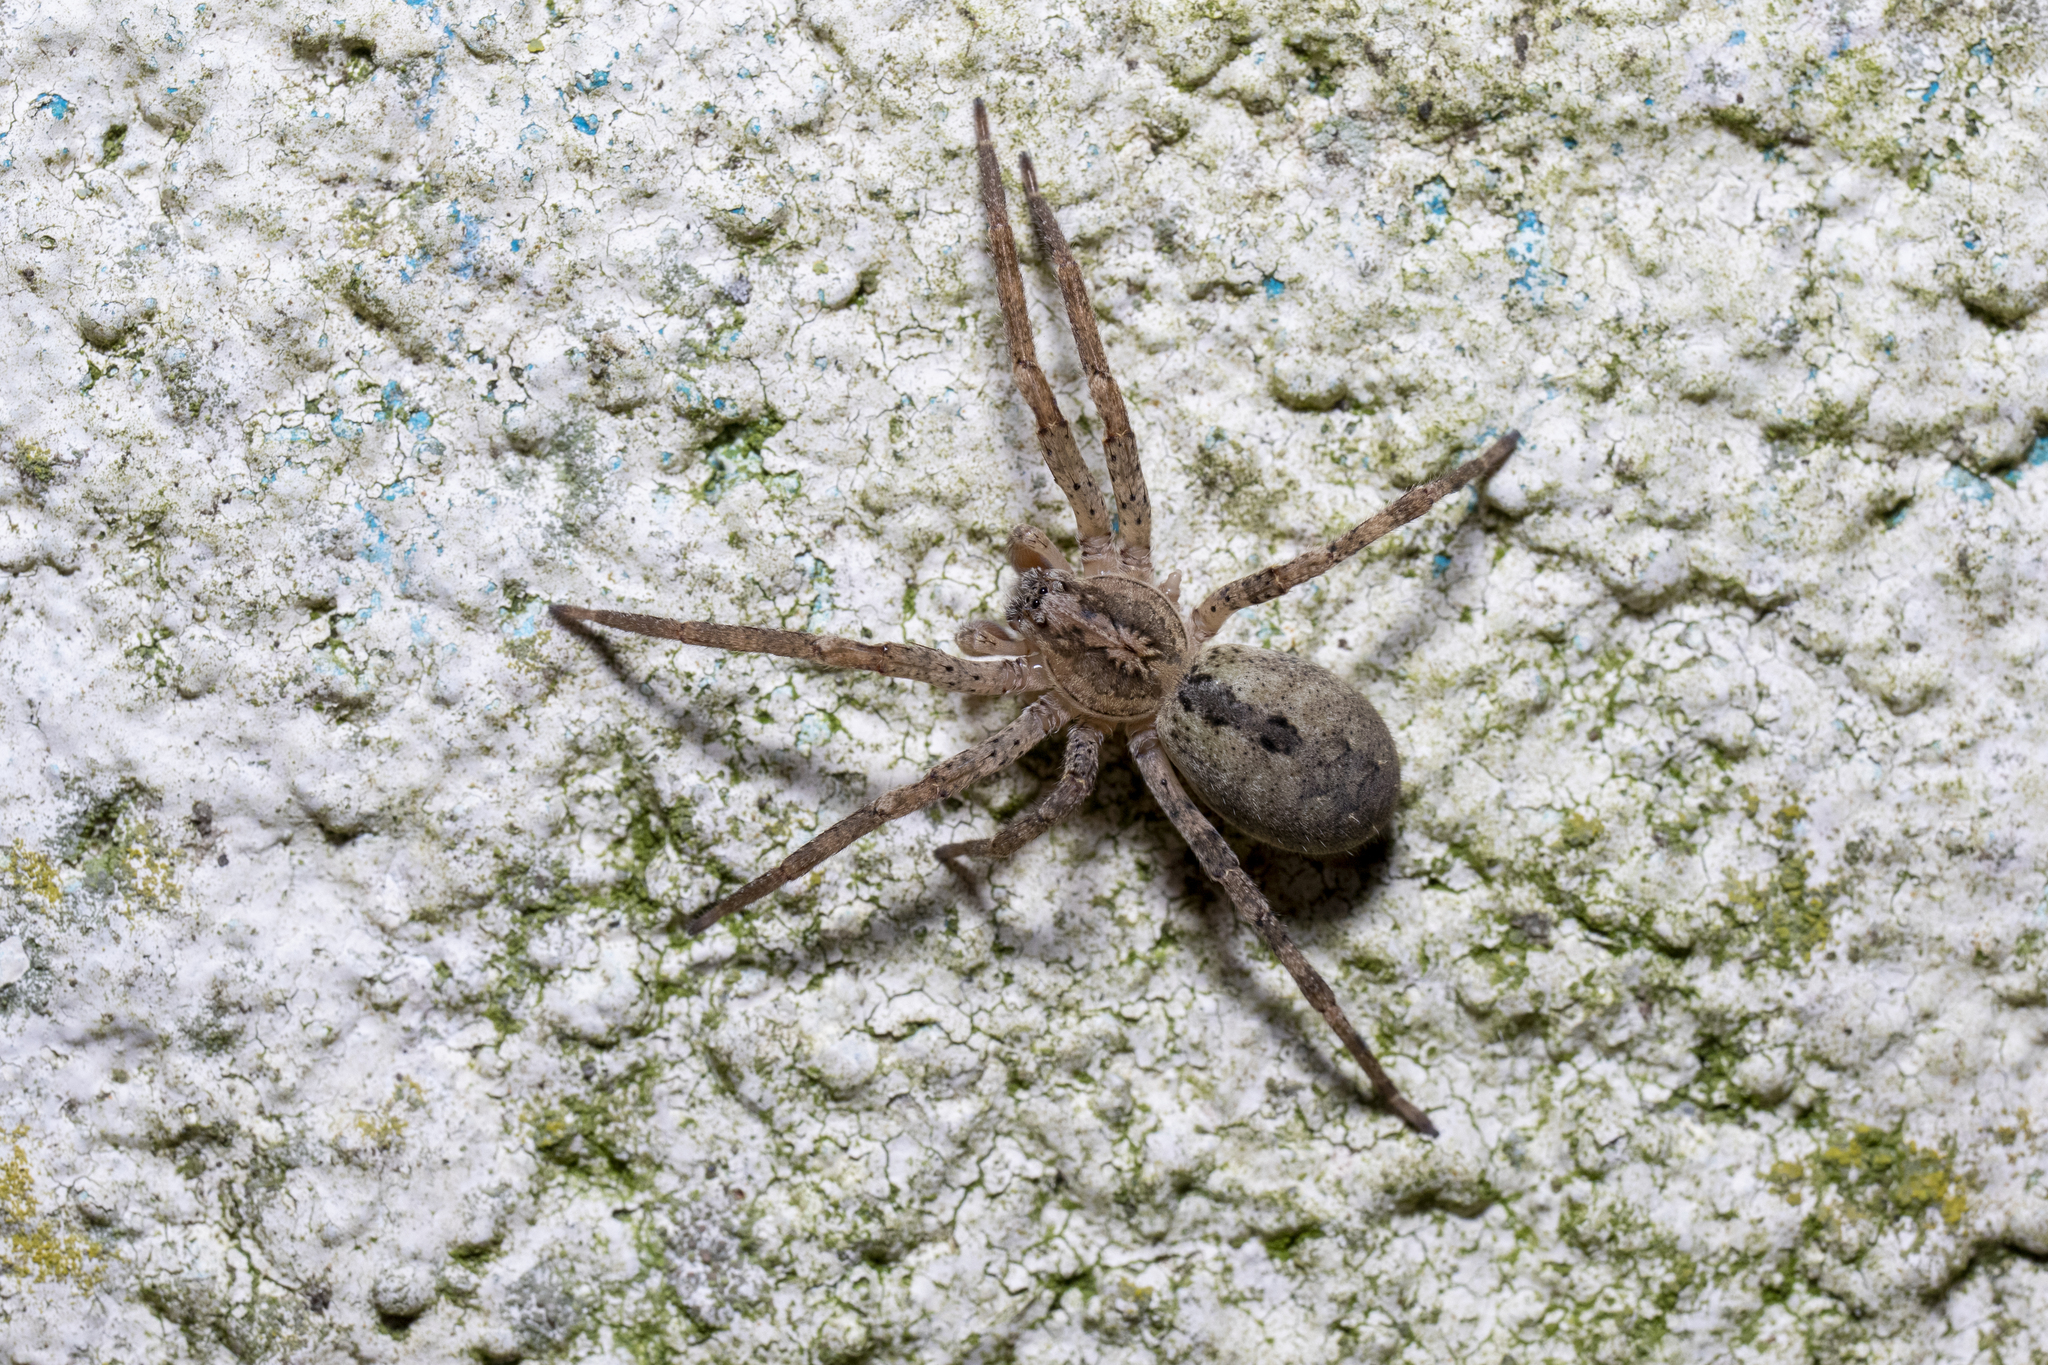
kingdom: Animalia
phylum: Arthropoda
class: Arachnida
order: Araneae
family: Zoropsidae
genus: Zoropsis
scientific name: Zoropsis spinimana
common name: Zoropsid spider
